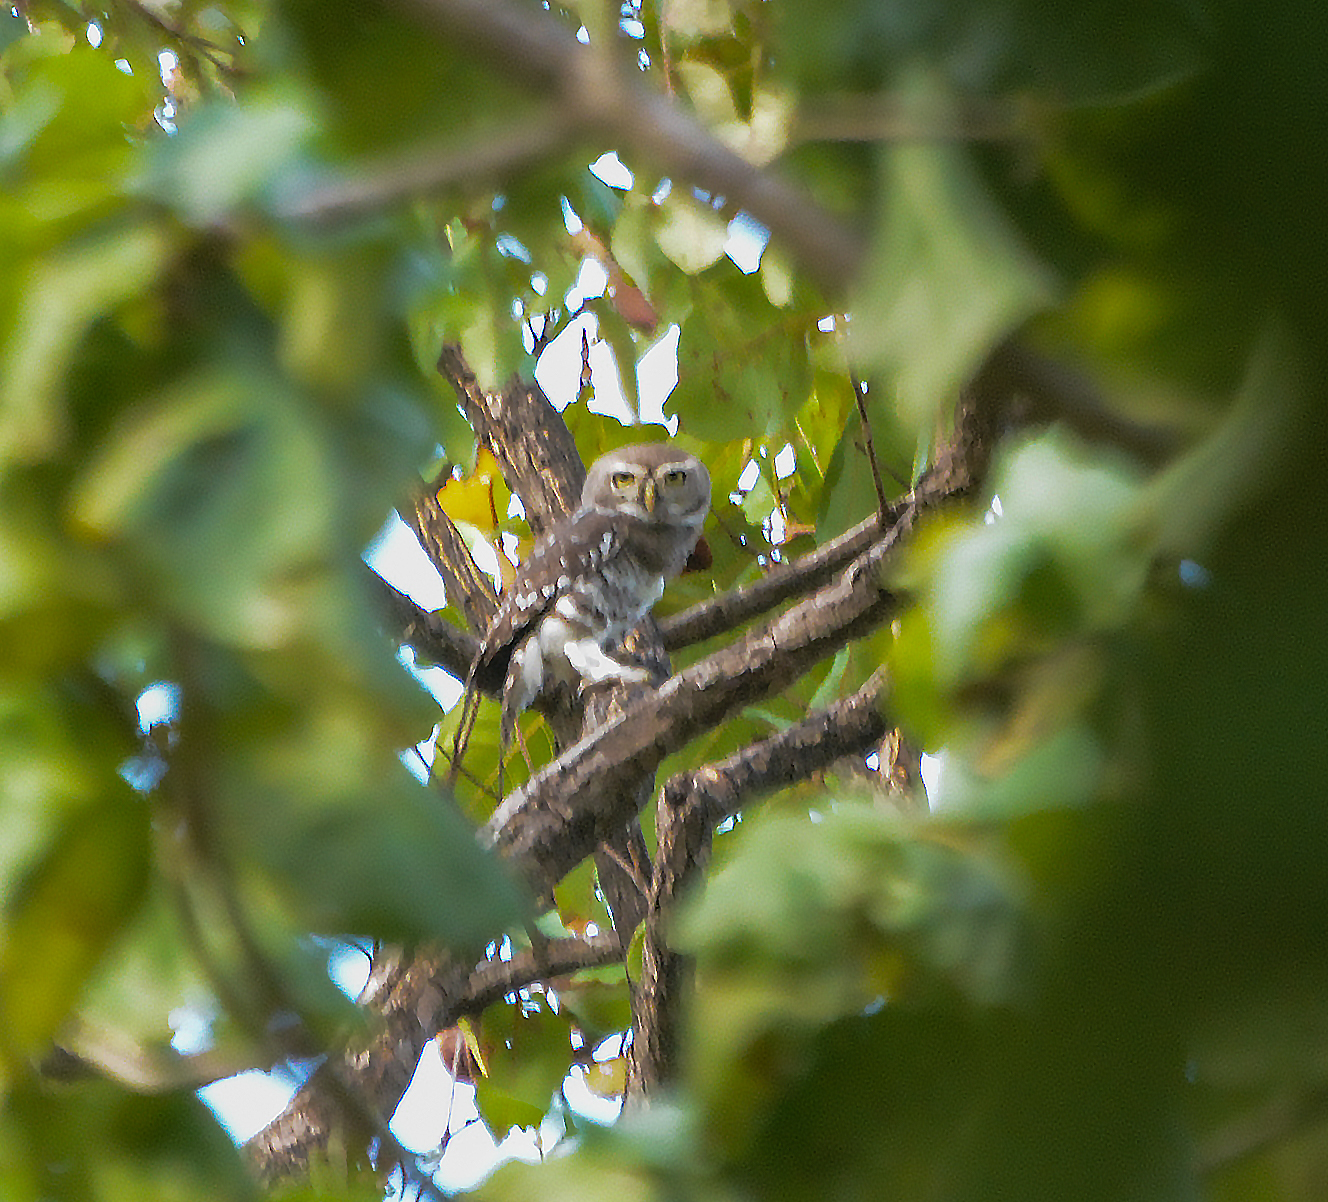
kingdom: Animalia
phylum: Chordata
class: Aves
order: Strigiformes
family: Strigidae
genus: Heteroglaux
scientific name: Heteroglaux blewitti
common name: Forest owlet
